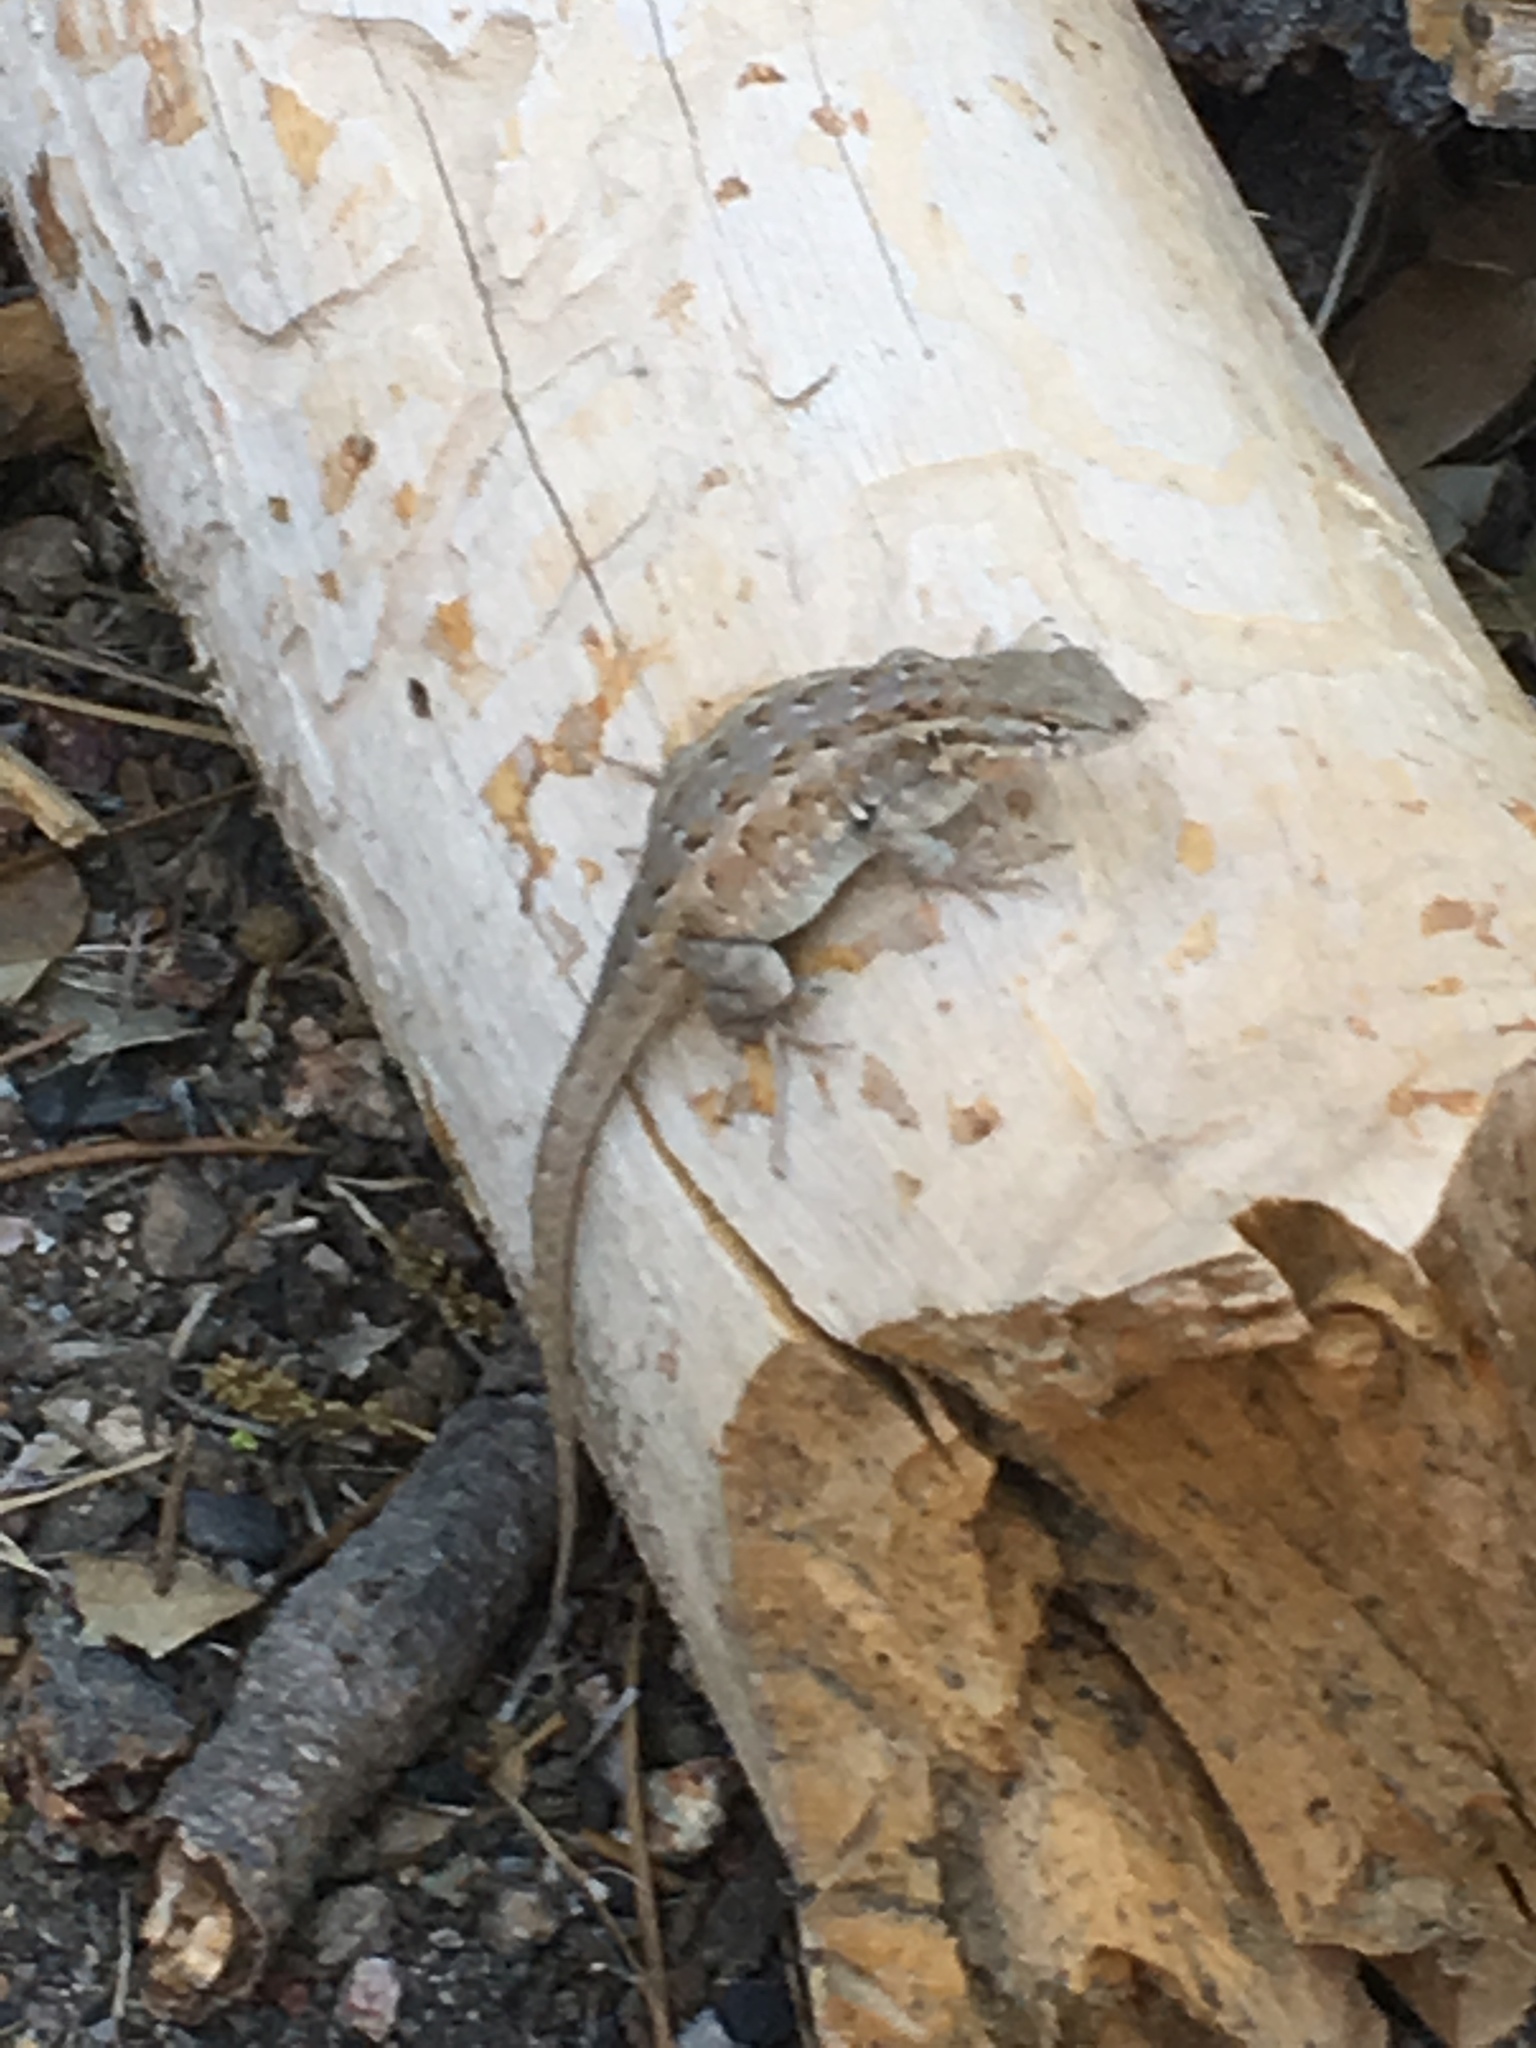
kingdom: Animalia
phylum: Chordata
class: Squamata
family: Phrynosomatidae
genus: Uta
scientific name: Uta stansburiana
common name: Side-blotched lizard
